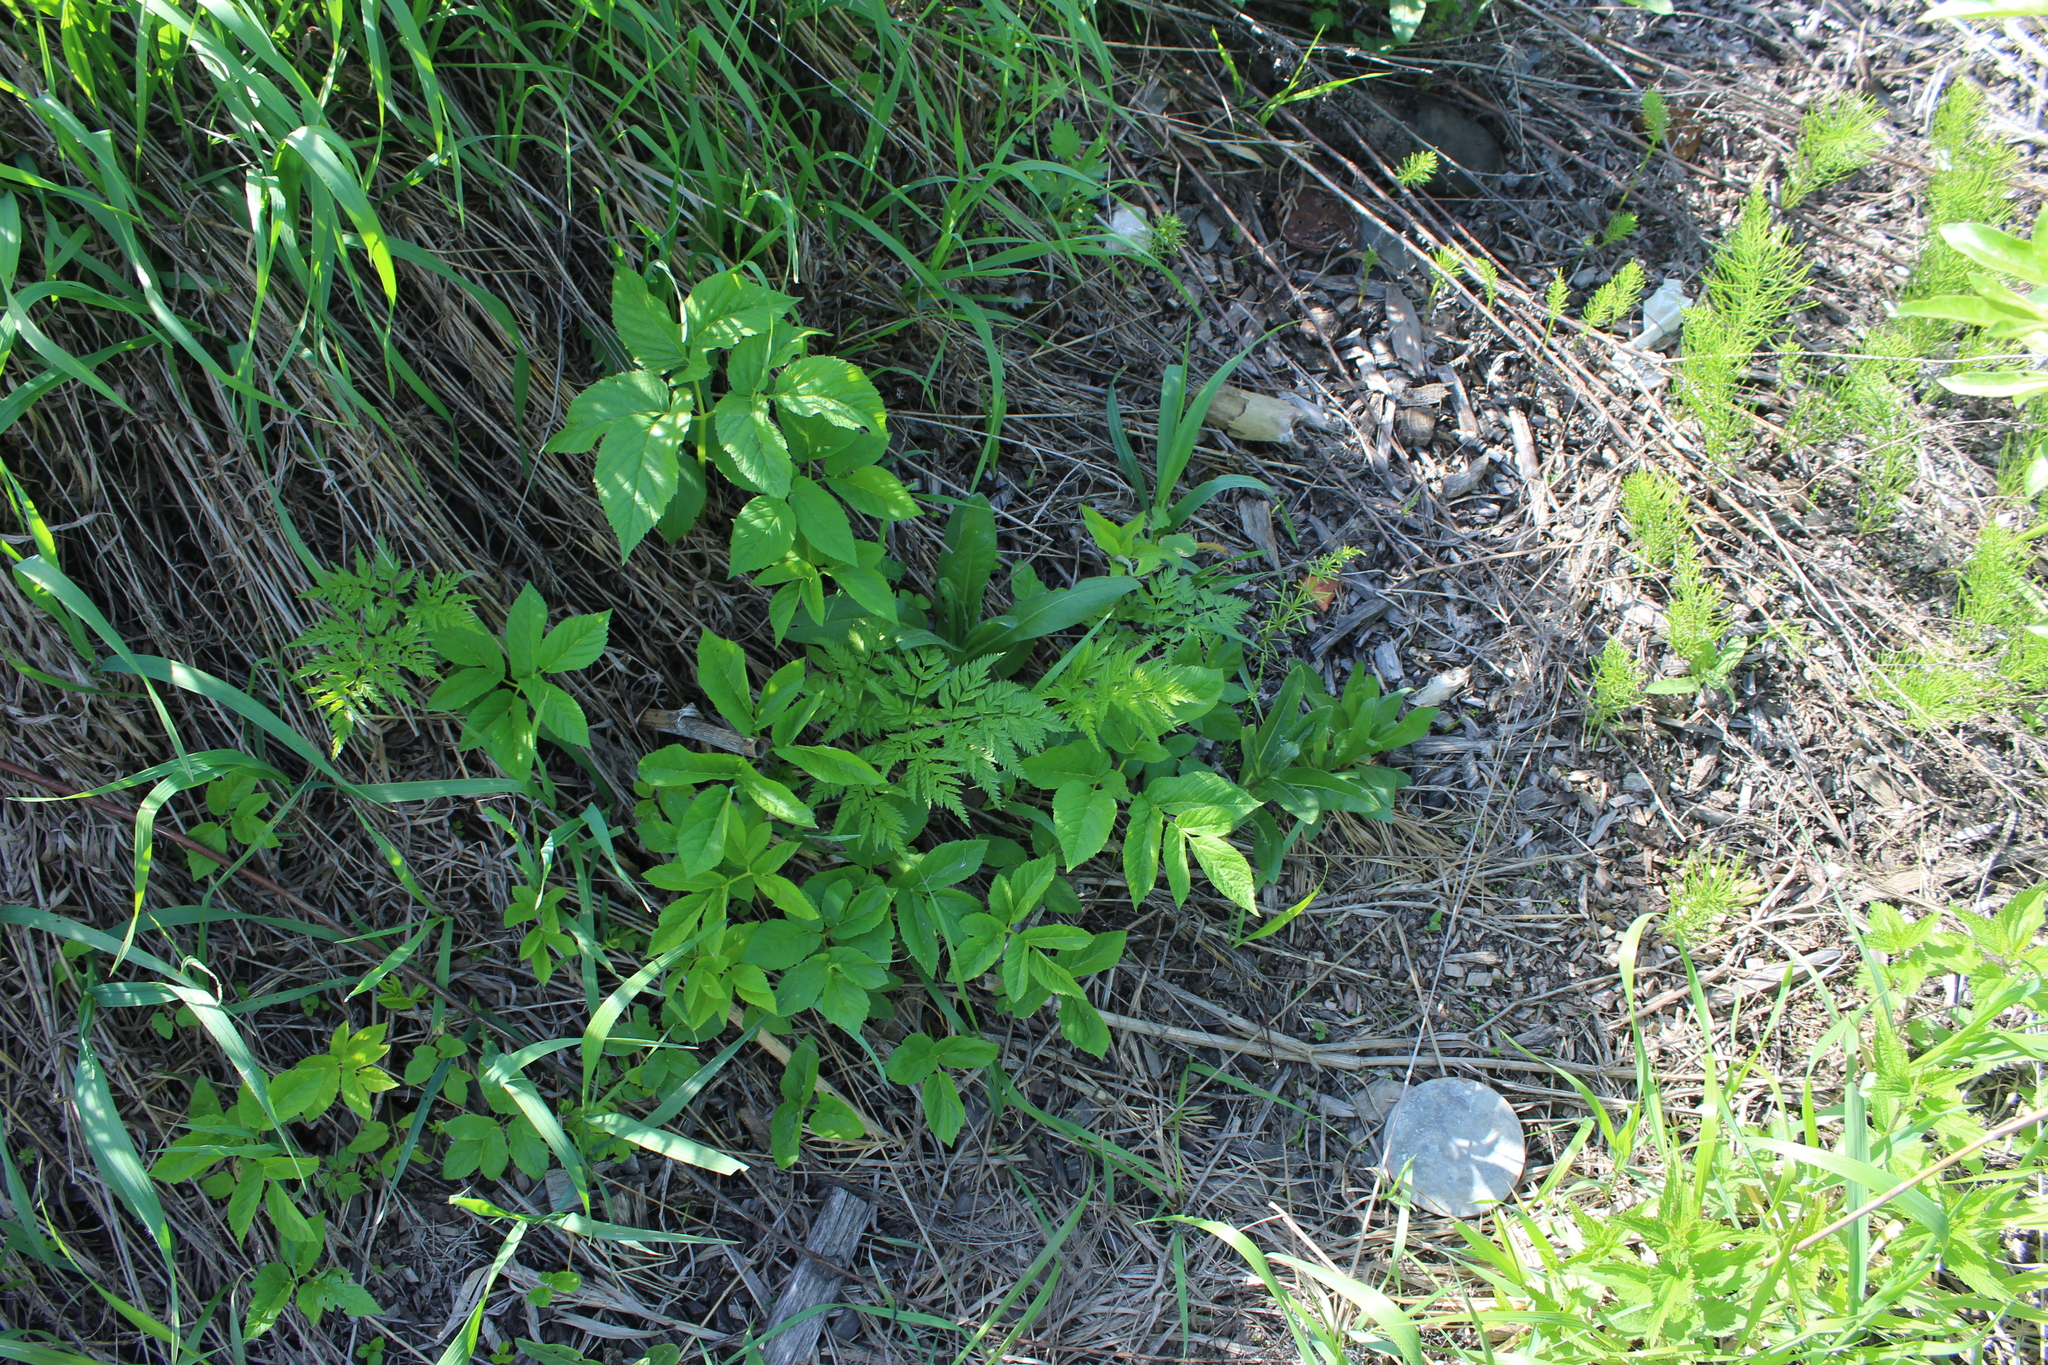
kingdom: Plantae
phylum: Tracheophyta
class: Magnoliopsida
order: Apiales
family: Apiaceae
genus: Aegopodium
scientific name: Aegopodium podagraria
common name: Ground-elder
